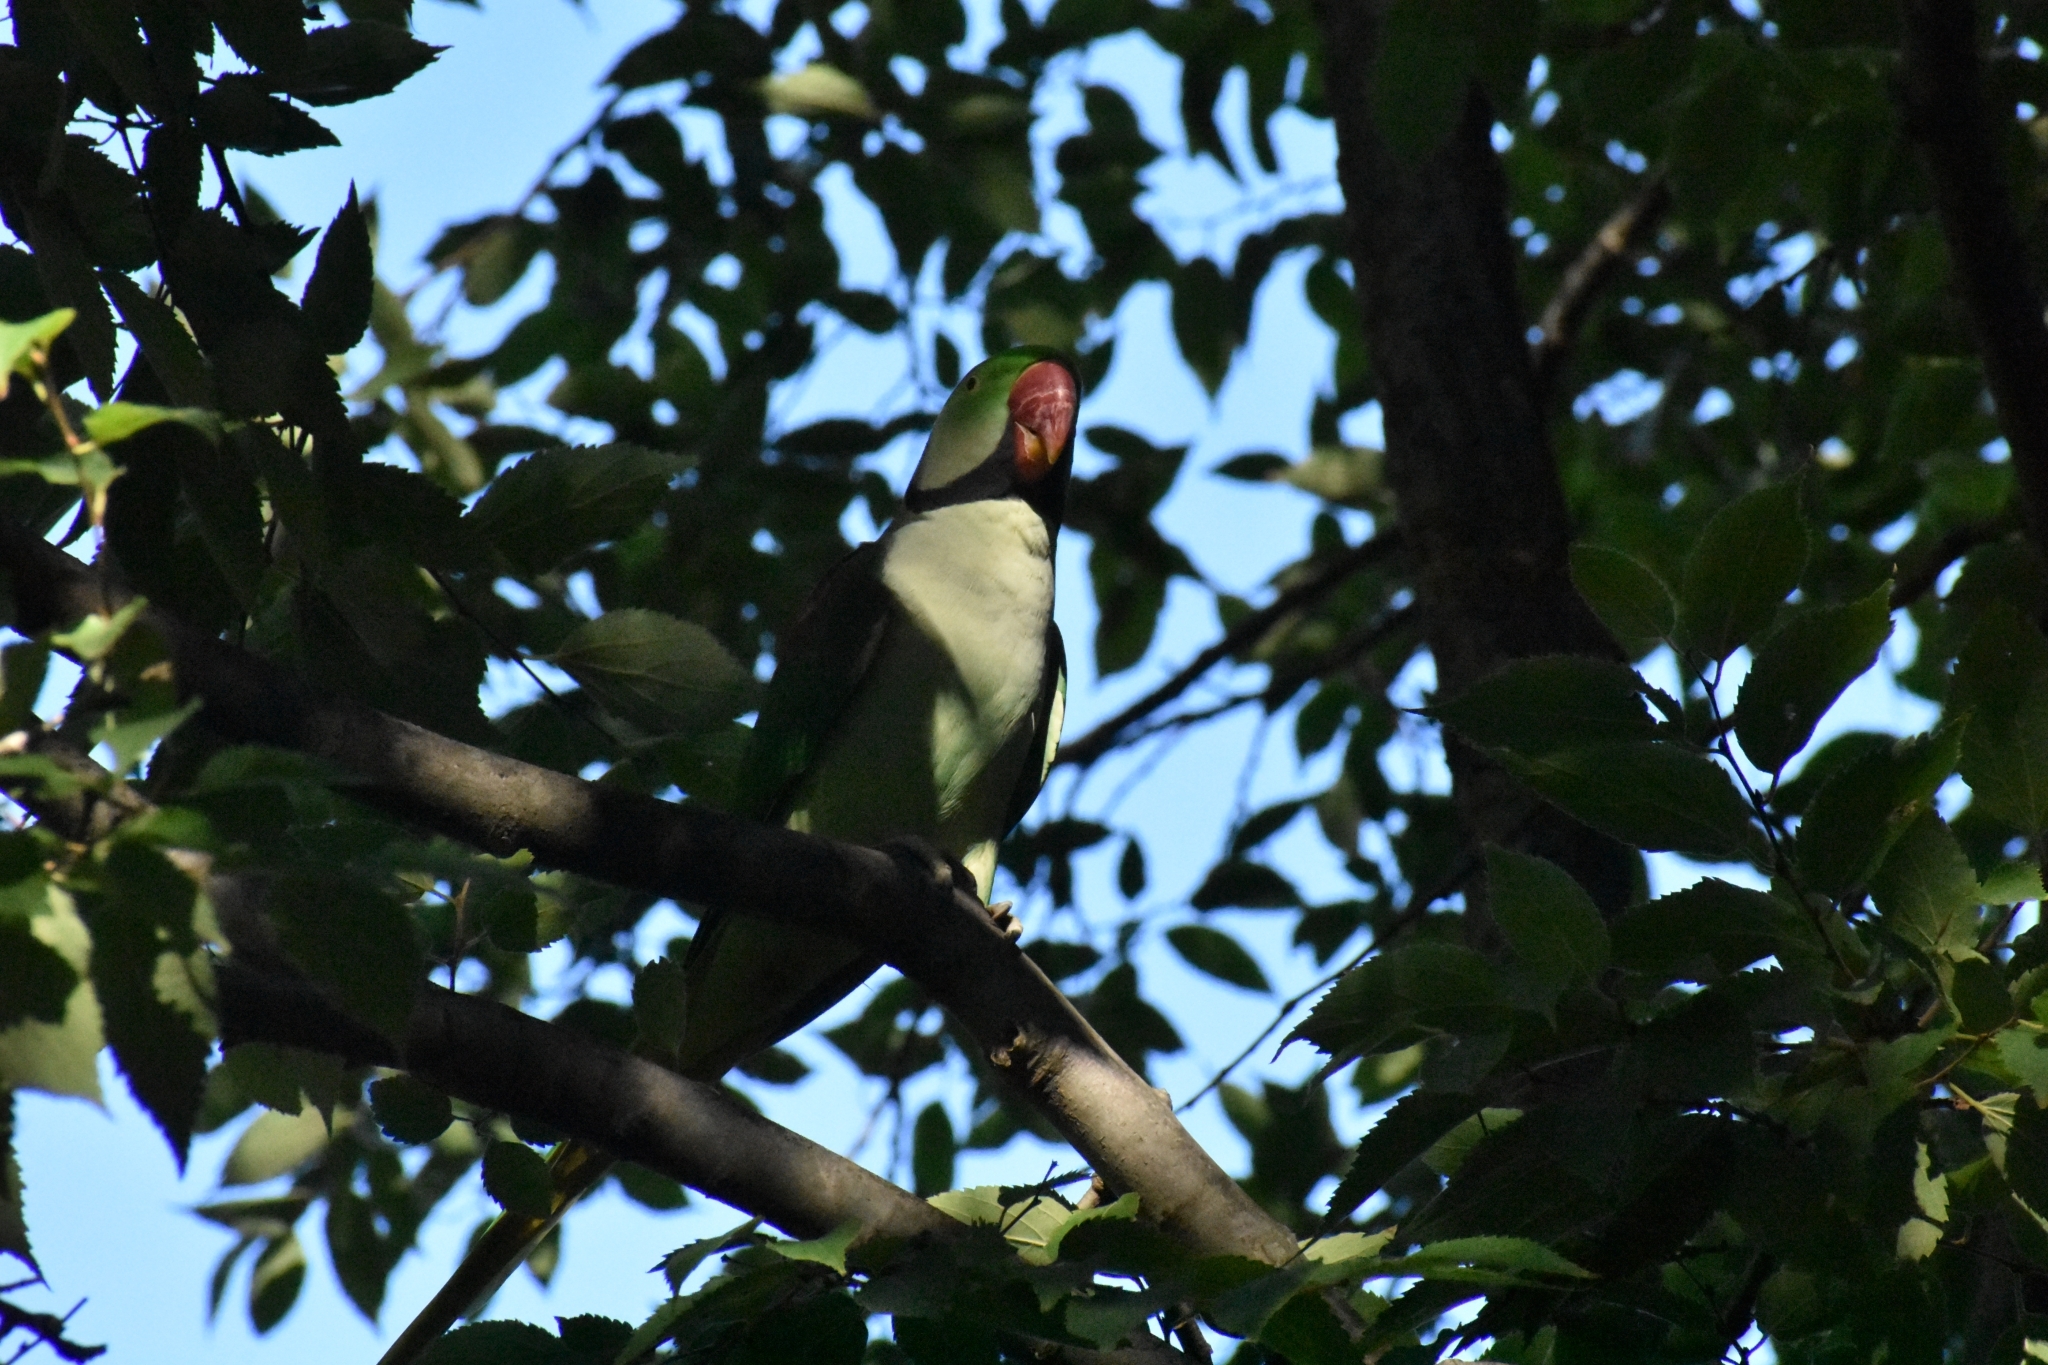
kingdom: Animalia
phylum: Chordata
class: Aves
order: Psittaciformes
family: Psittacidae
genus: Psittacula
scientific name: Psittacula eupatria
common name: Alexandrine parakeet
